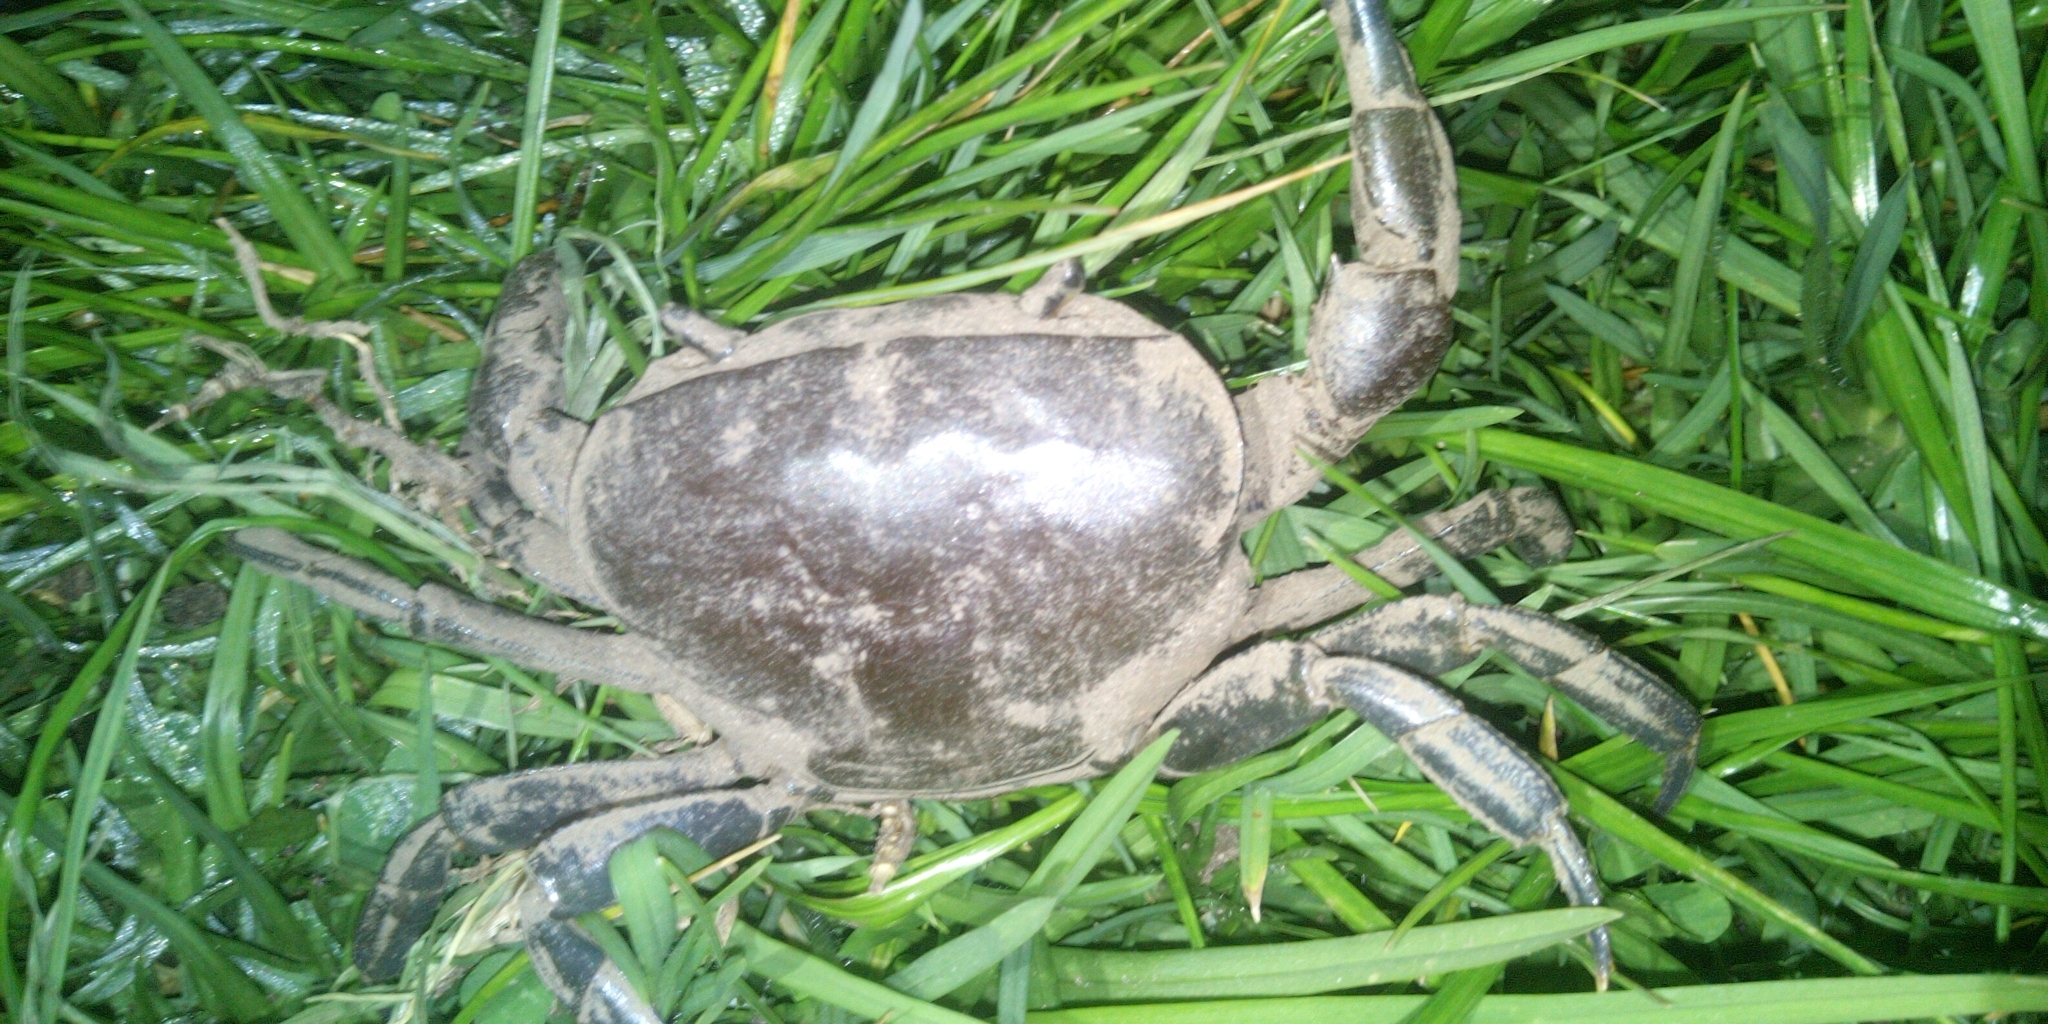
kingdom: Animalia
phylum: Arthropoda
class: Malacostraca
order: Decapoda
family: Potamonautidae
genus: Potamonautes
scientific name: Potamonautes perlatus
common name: Cape river crab
